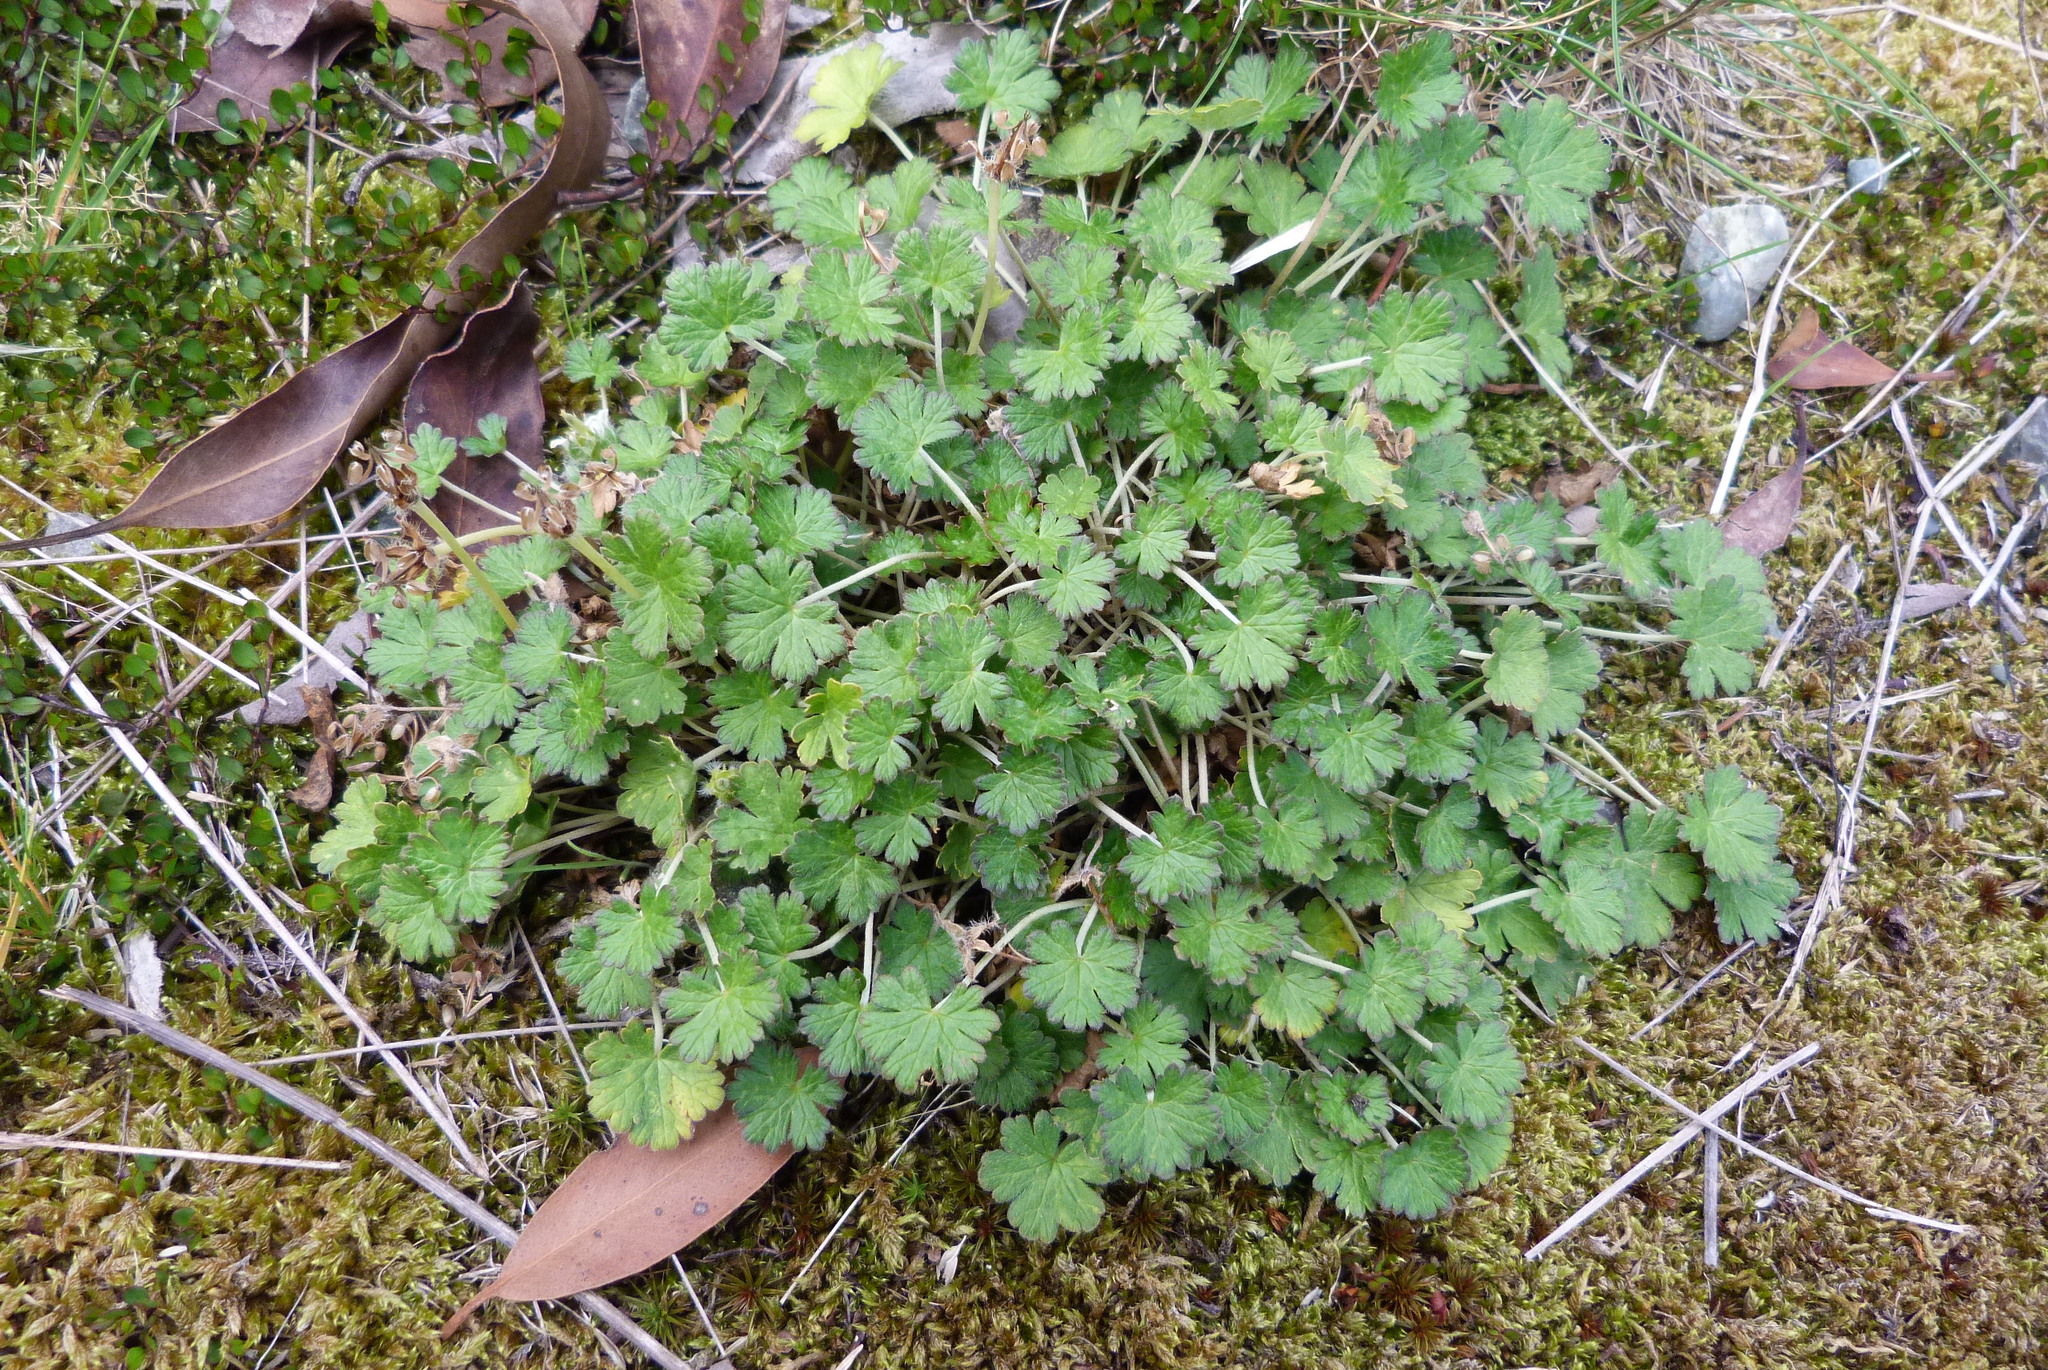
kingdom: Plantae
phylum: Tracheophyta
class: Magnoliopsida
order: Geraniales
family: Geraniaceae
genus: Geranium
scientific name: Geranium brevicaule
